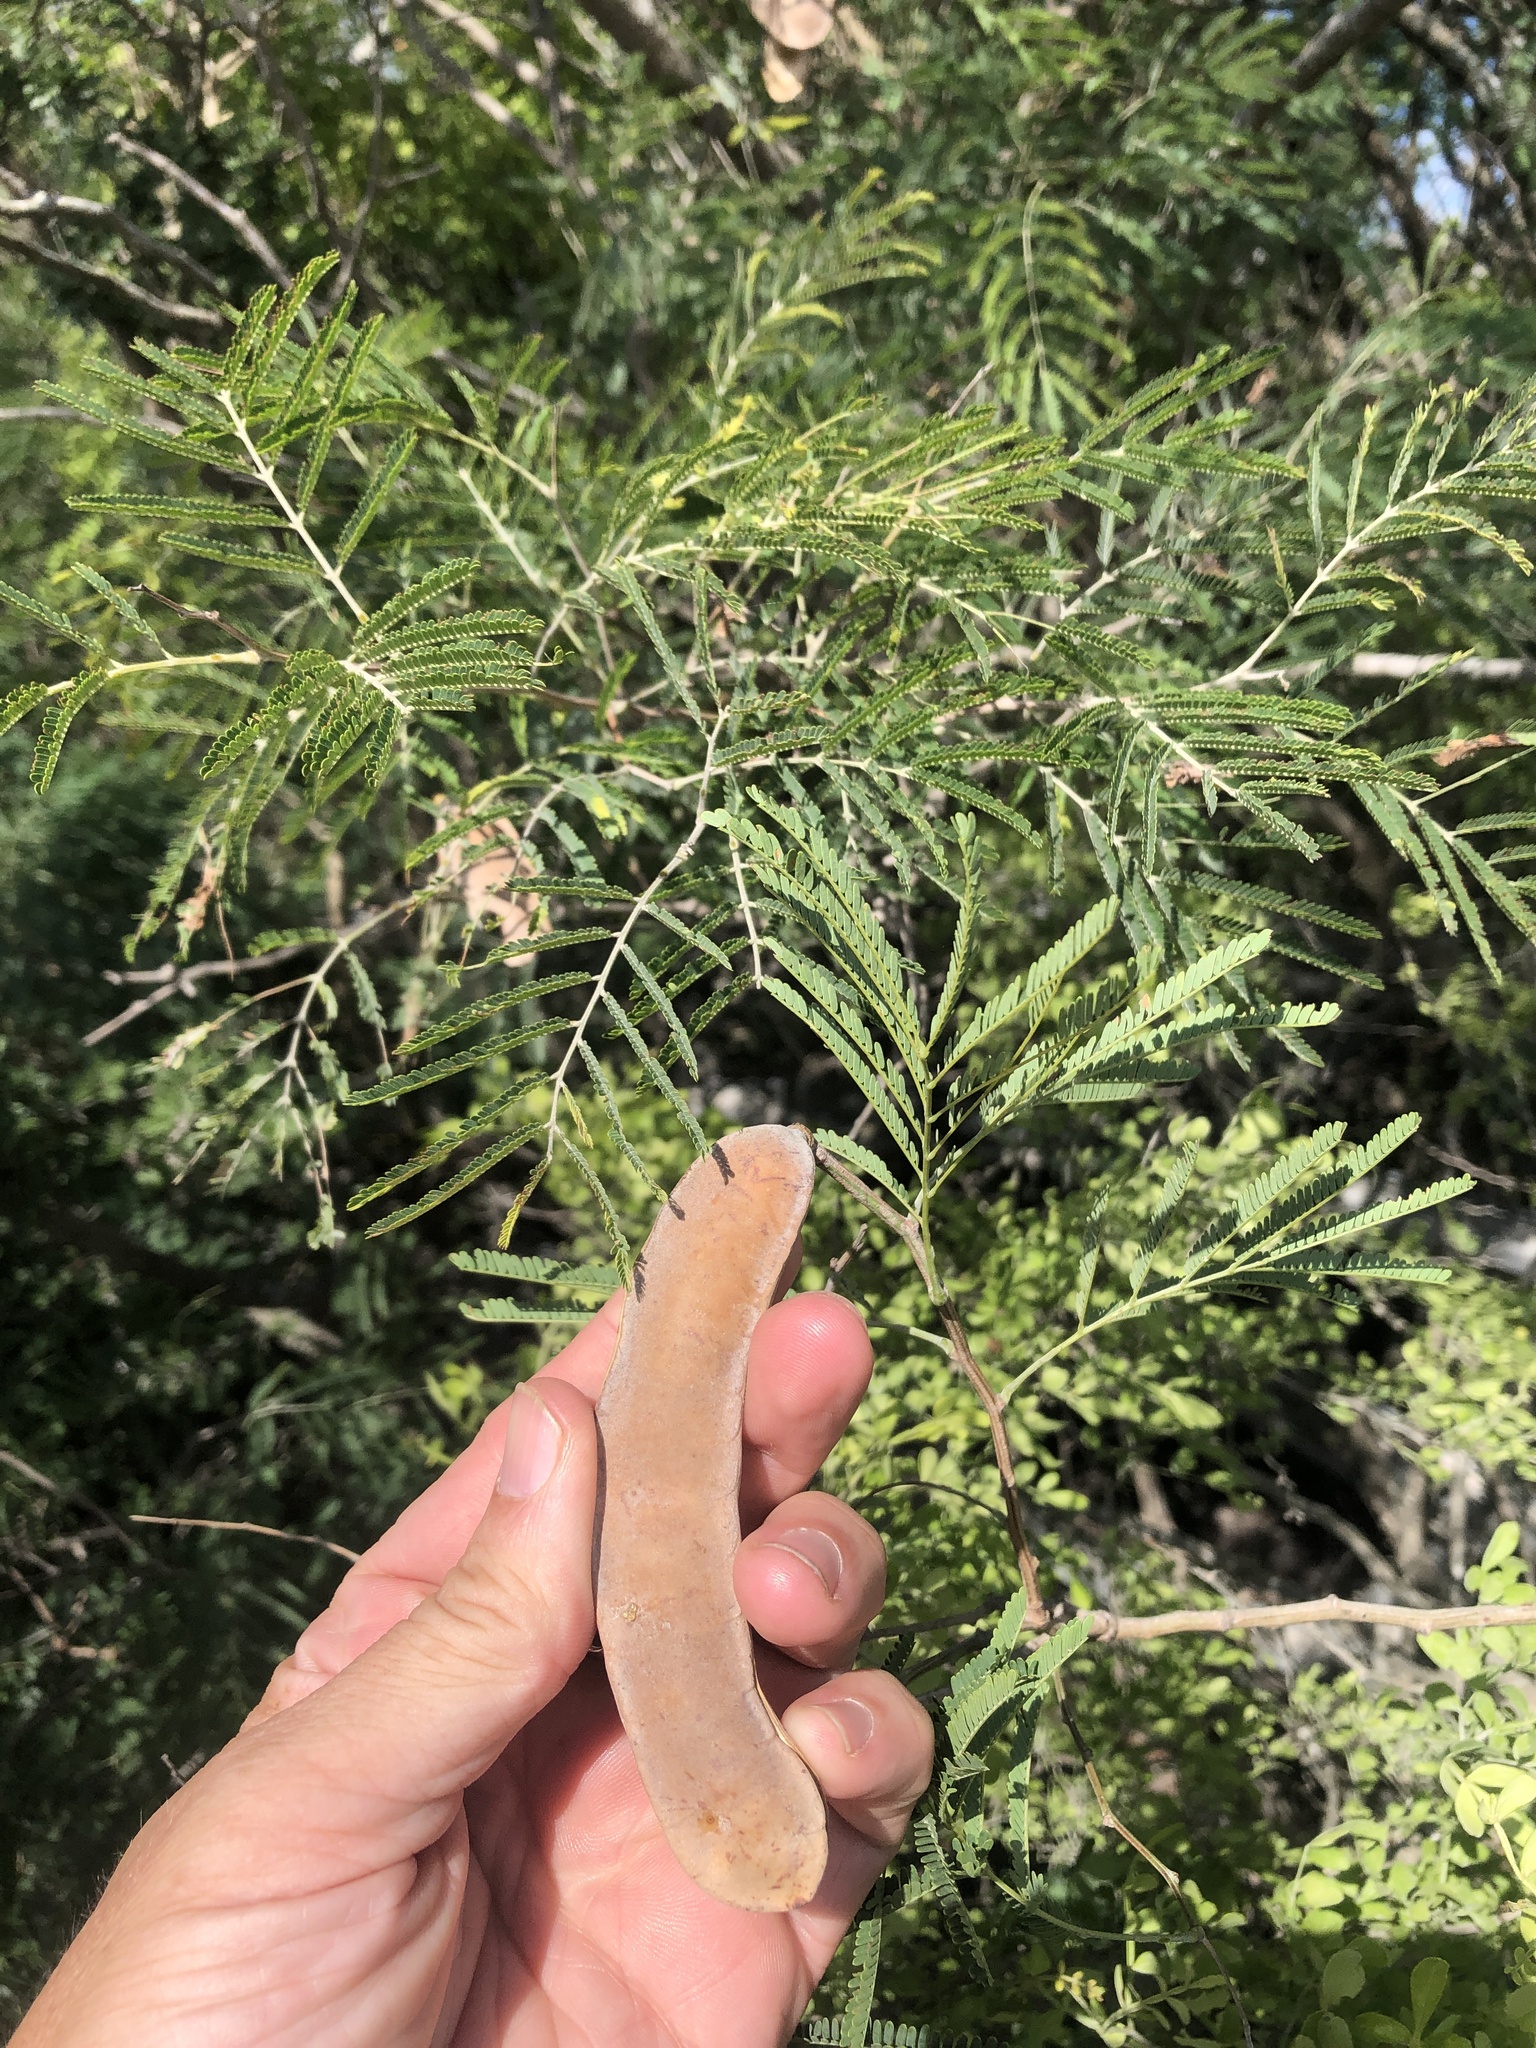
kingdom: Plantae
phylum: Tracheophyta
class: Magnoliopsida
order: Fabales
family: Fabaceae
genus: Senegalia
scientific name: Senegalia berlandieri
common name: Berlandier acacia
